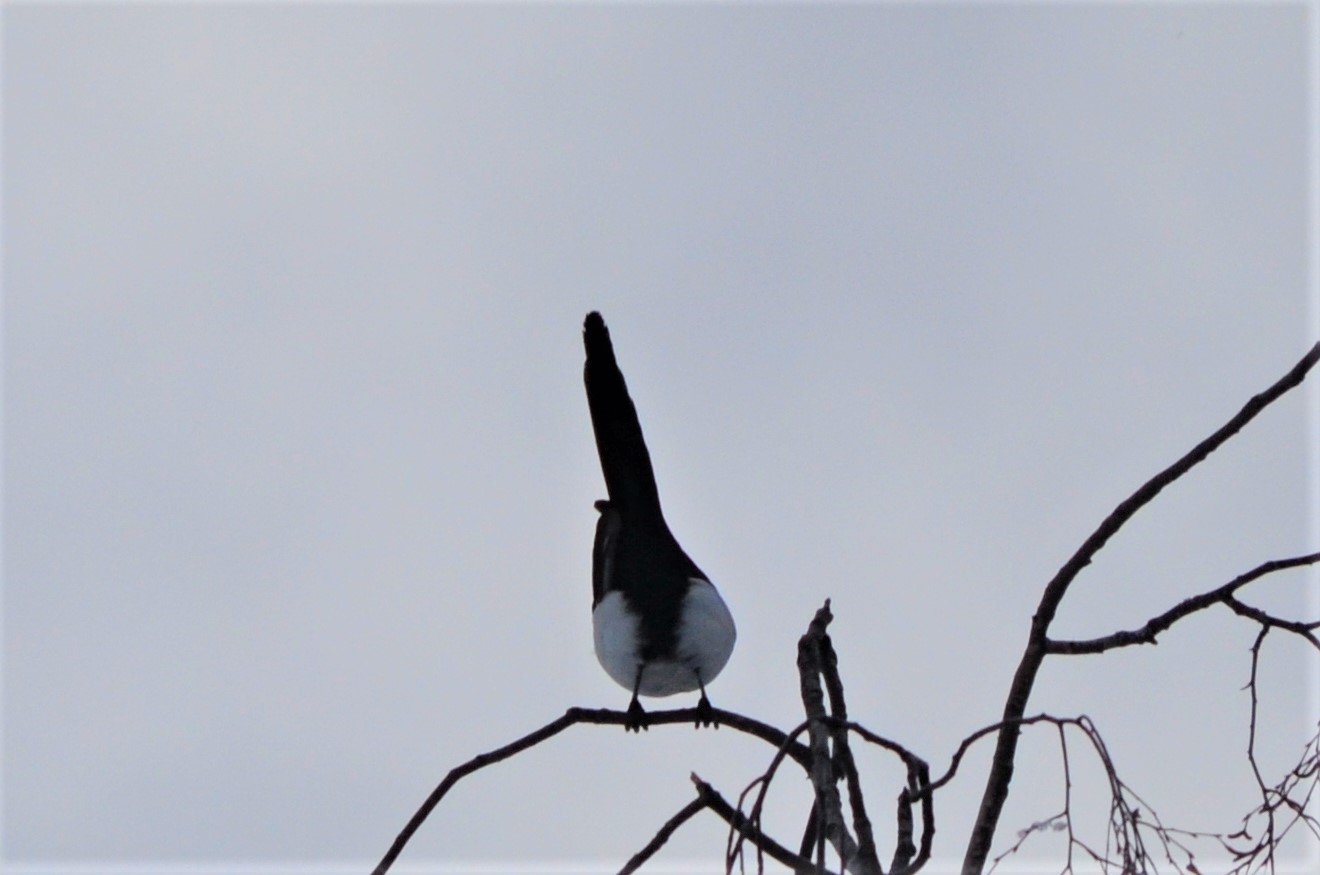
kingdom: Animalia
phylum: Chordata
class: Aves
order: Passeriformes
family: Corvidae
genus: Pica
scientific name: Pica pica
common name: Eurasian magpie
